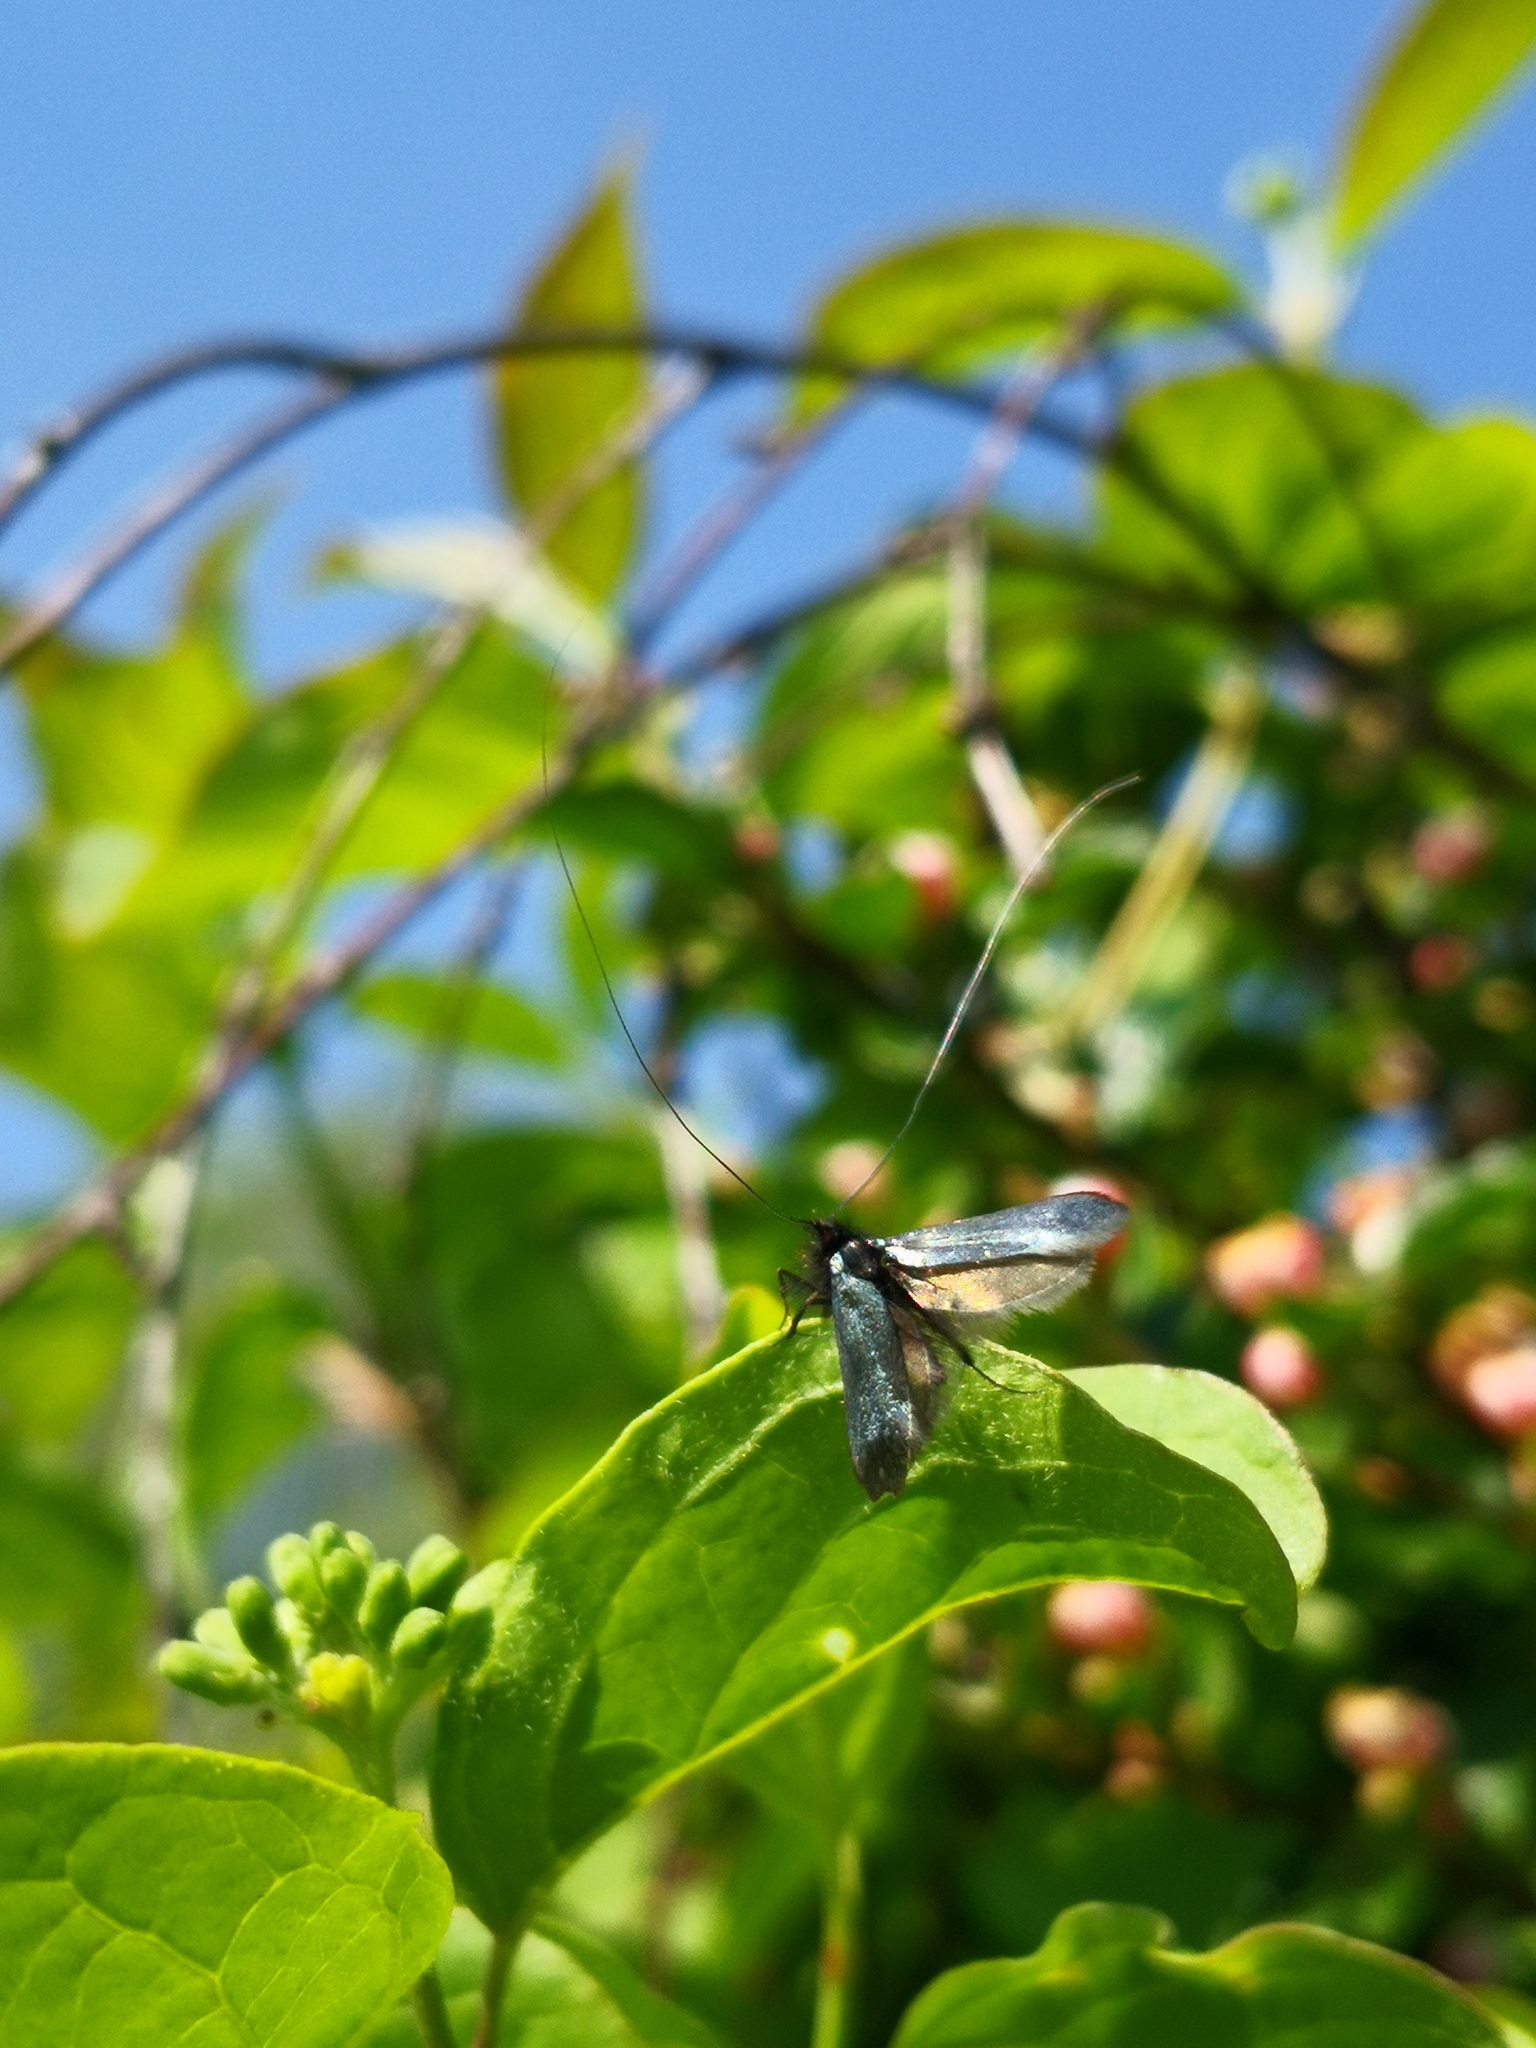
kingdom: Animalia
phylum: Arthropoda
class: Insecta
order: Lepidoptera
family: Adelidae
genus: Adela
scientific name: Adela viridella
